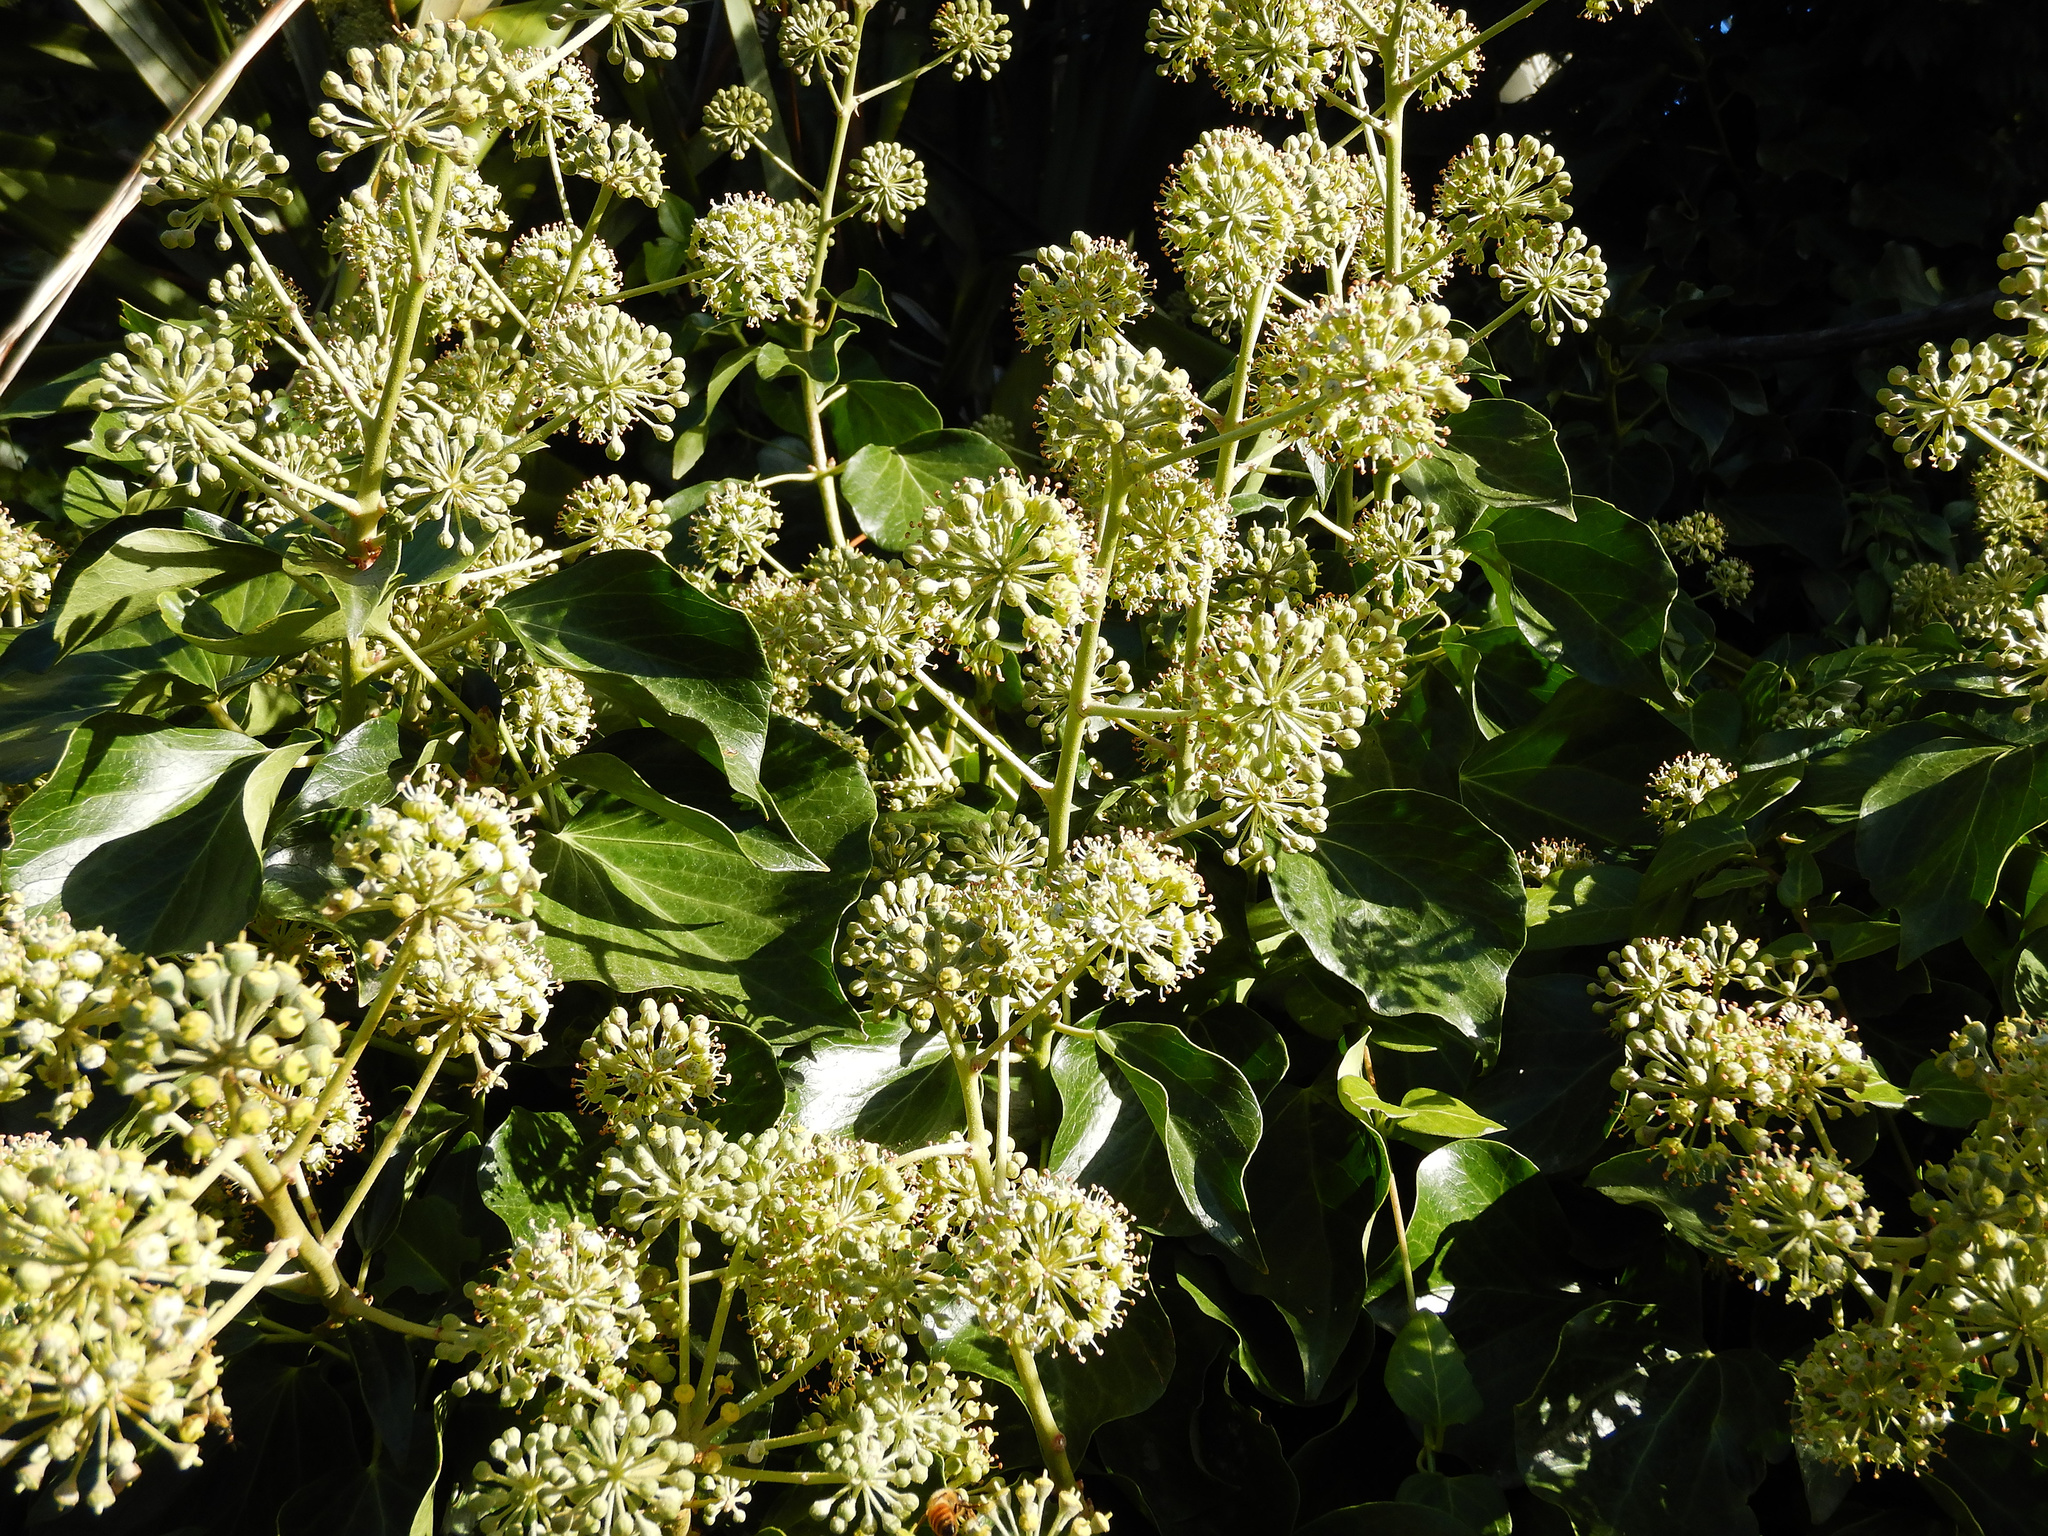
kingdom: Plantae
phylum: Tracheophyta
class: Magnoliopsida
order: Apiales
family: Araliaceae
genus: Hedera
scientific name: Hedera helix
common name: Ivy
